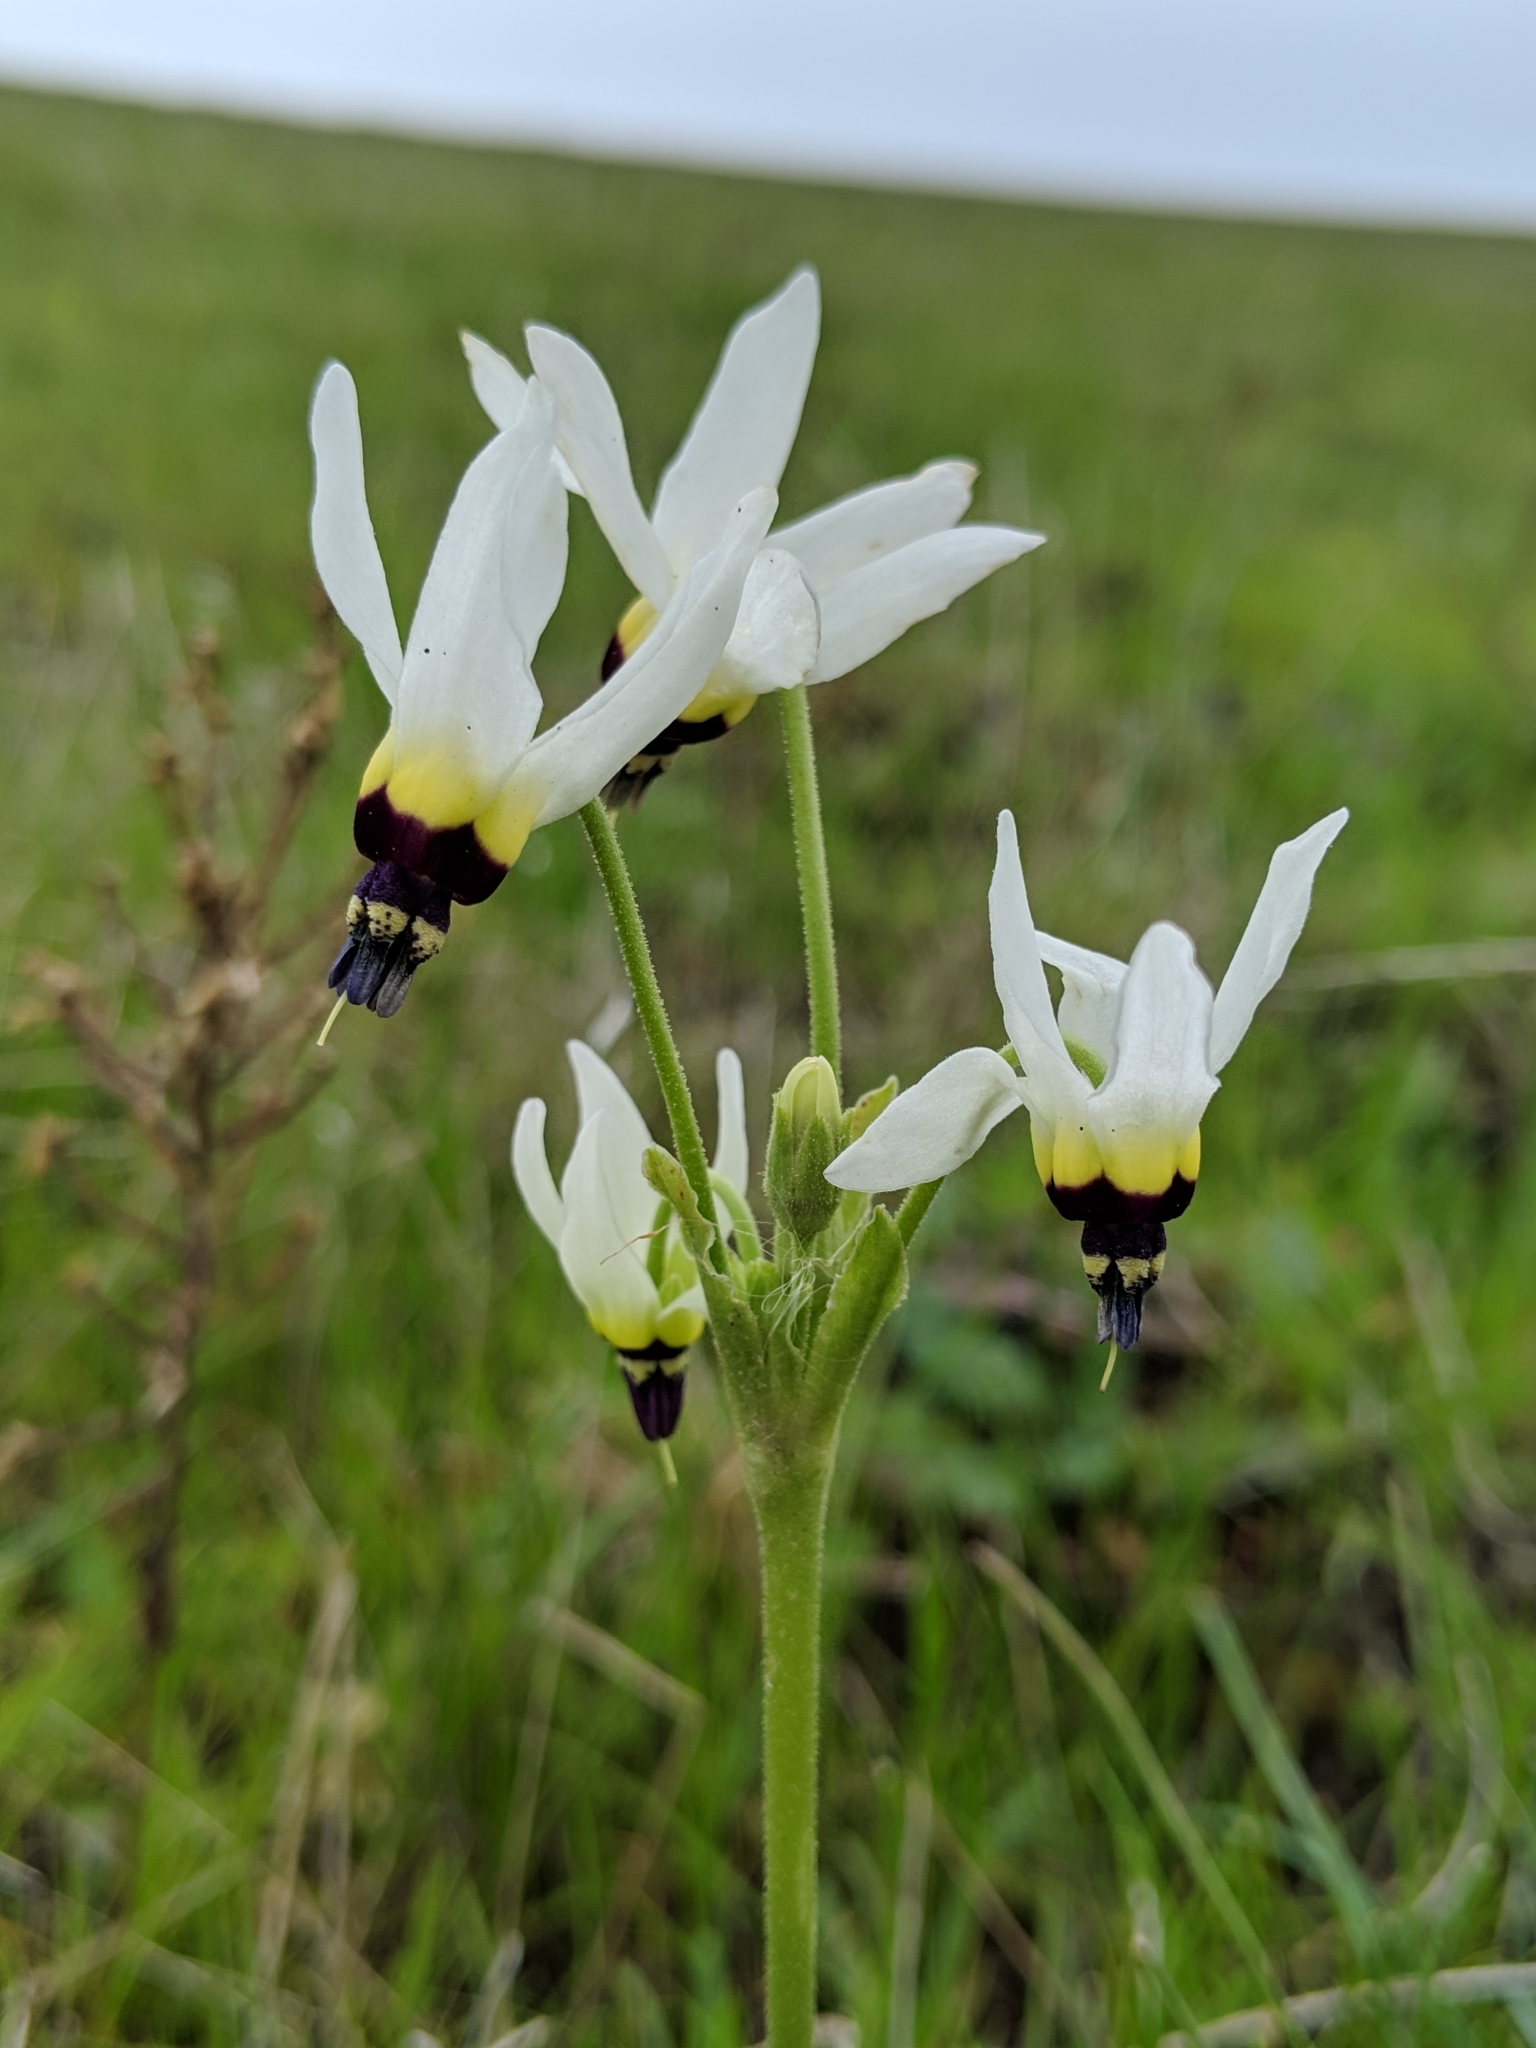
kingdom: Plantae
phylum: Tracheophyta
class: Magnoliopsida
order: Ericales
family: Primulaceae
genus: Dodecatheon
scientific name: Dodecatheon clevelandii
